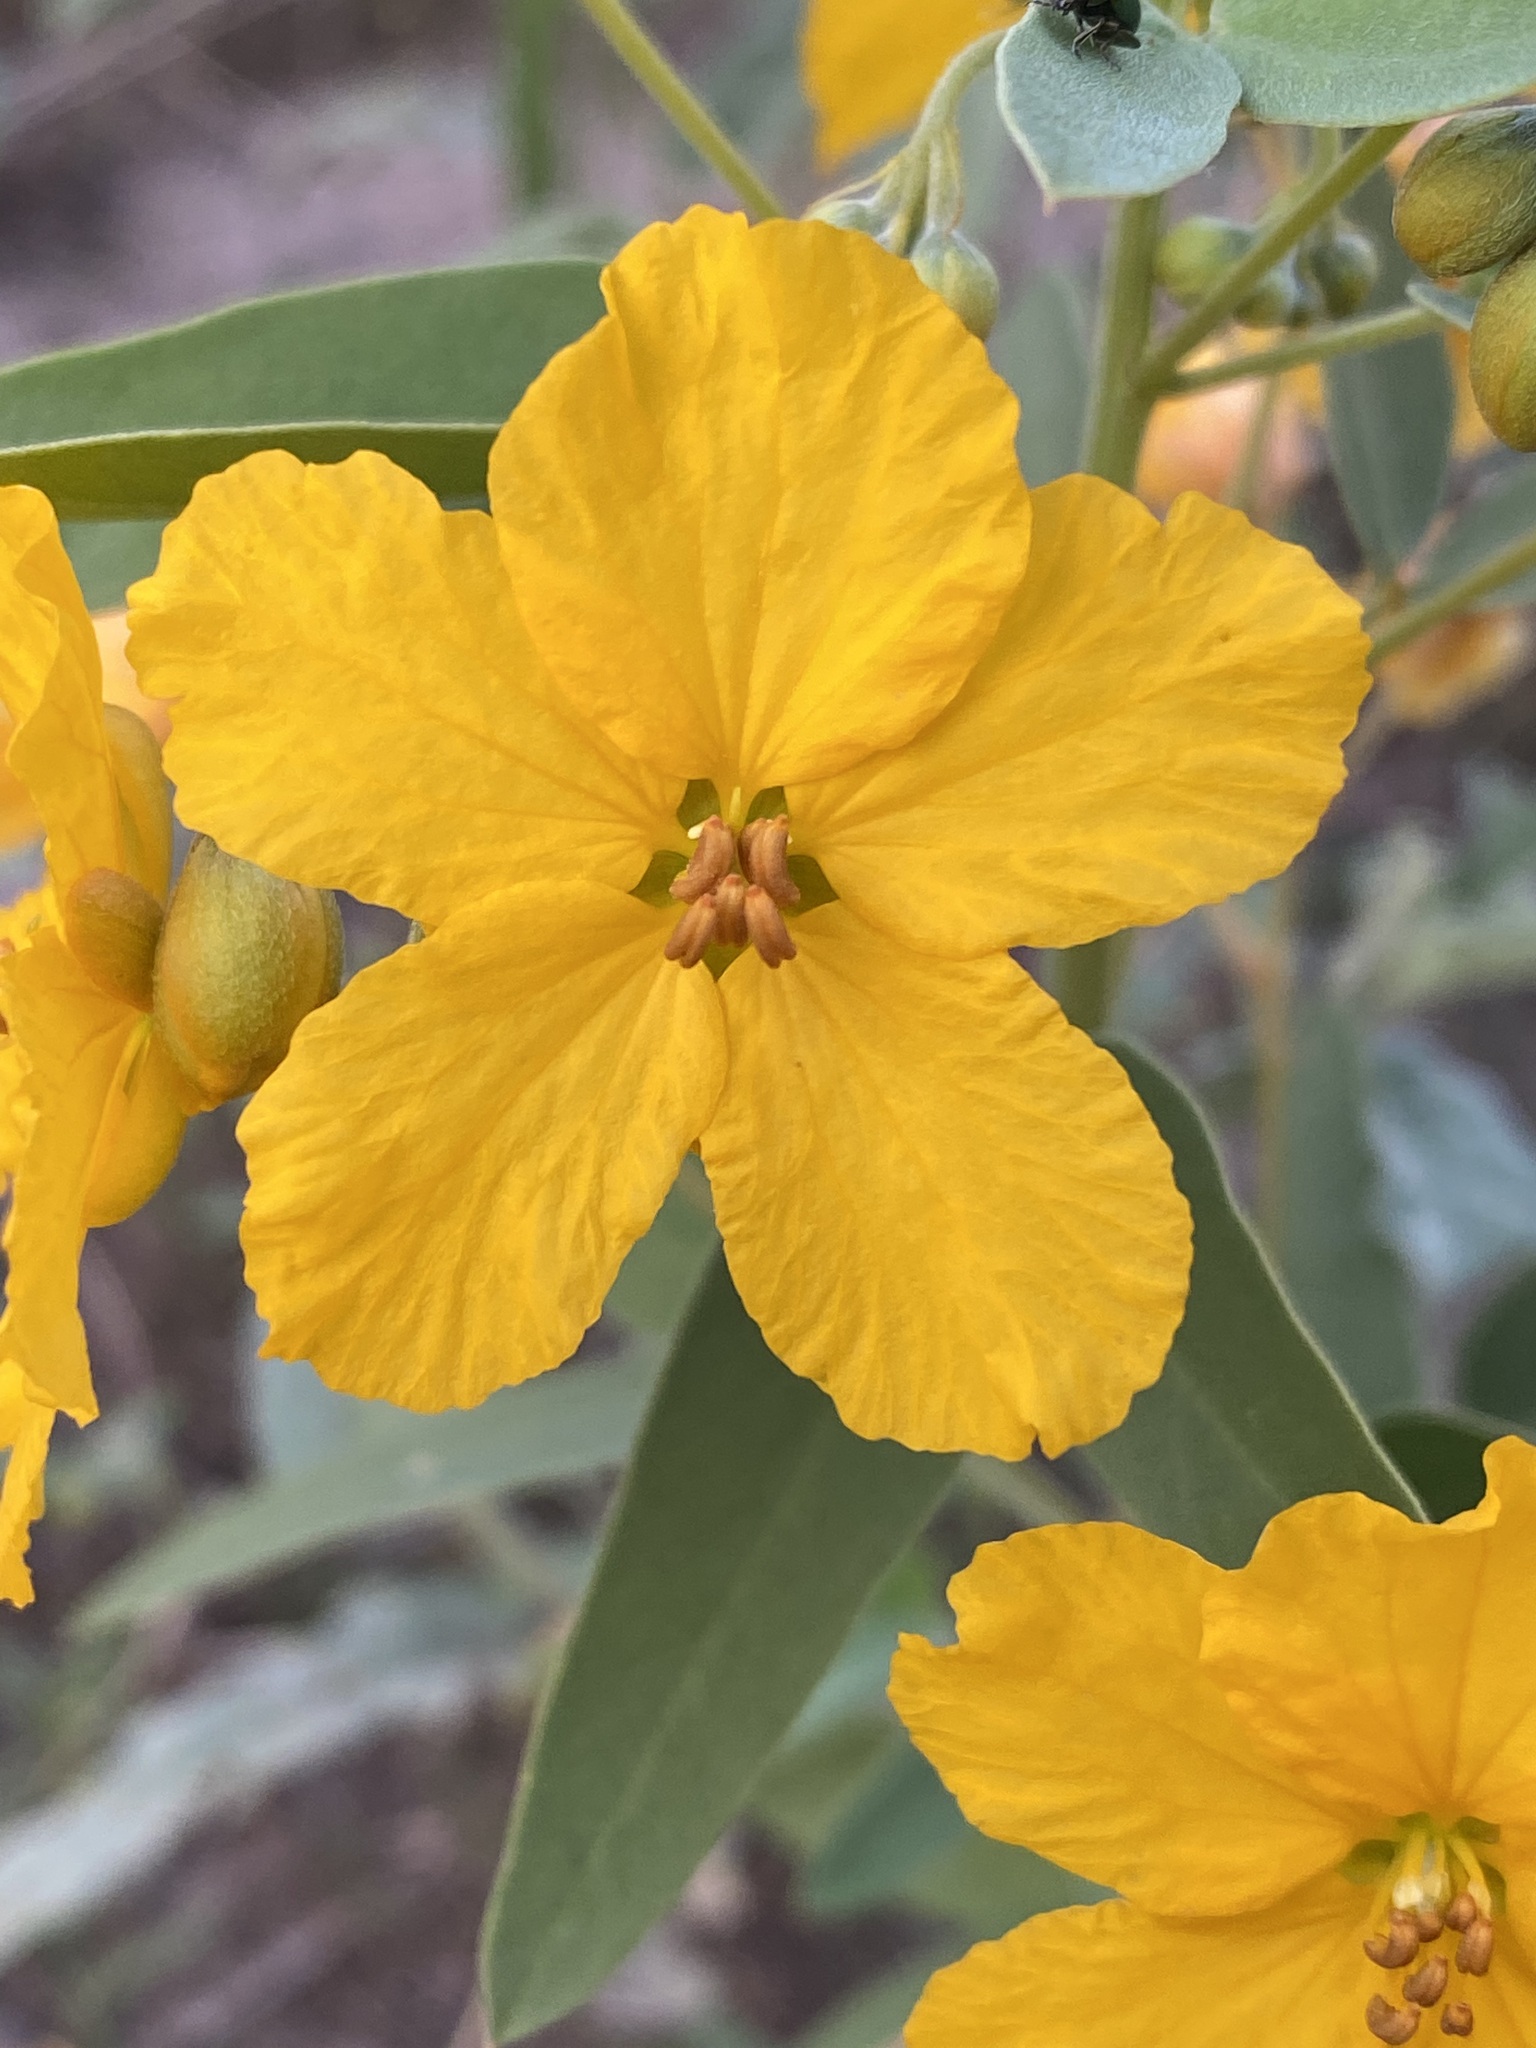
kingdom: Plantae
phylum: Tracheophyta
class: Magnoliopsida
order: Fabales
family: Fabaceae
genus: Senna
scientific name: Senna roemeriana
